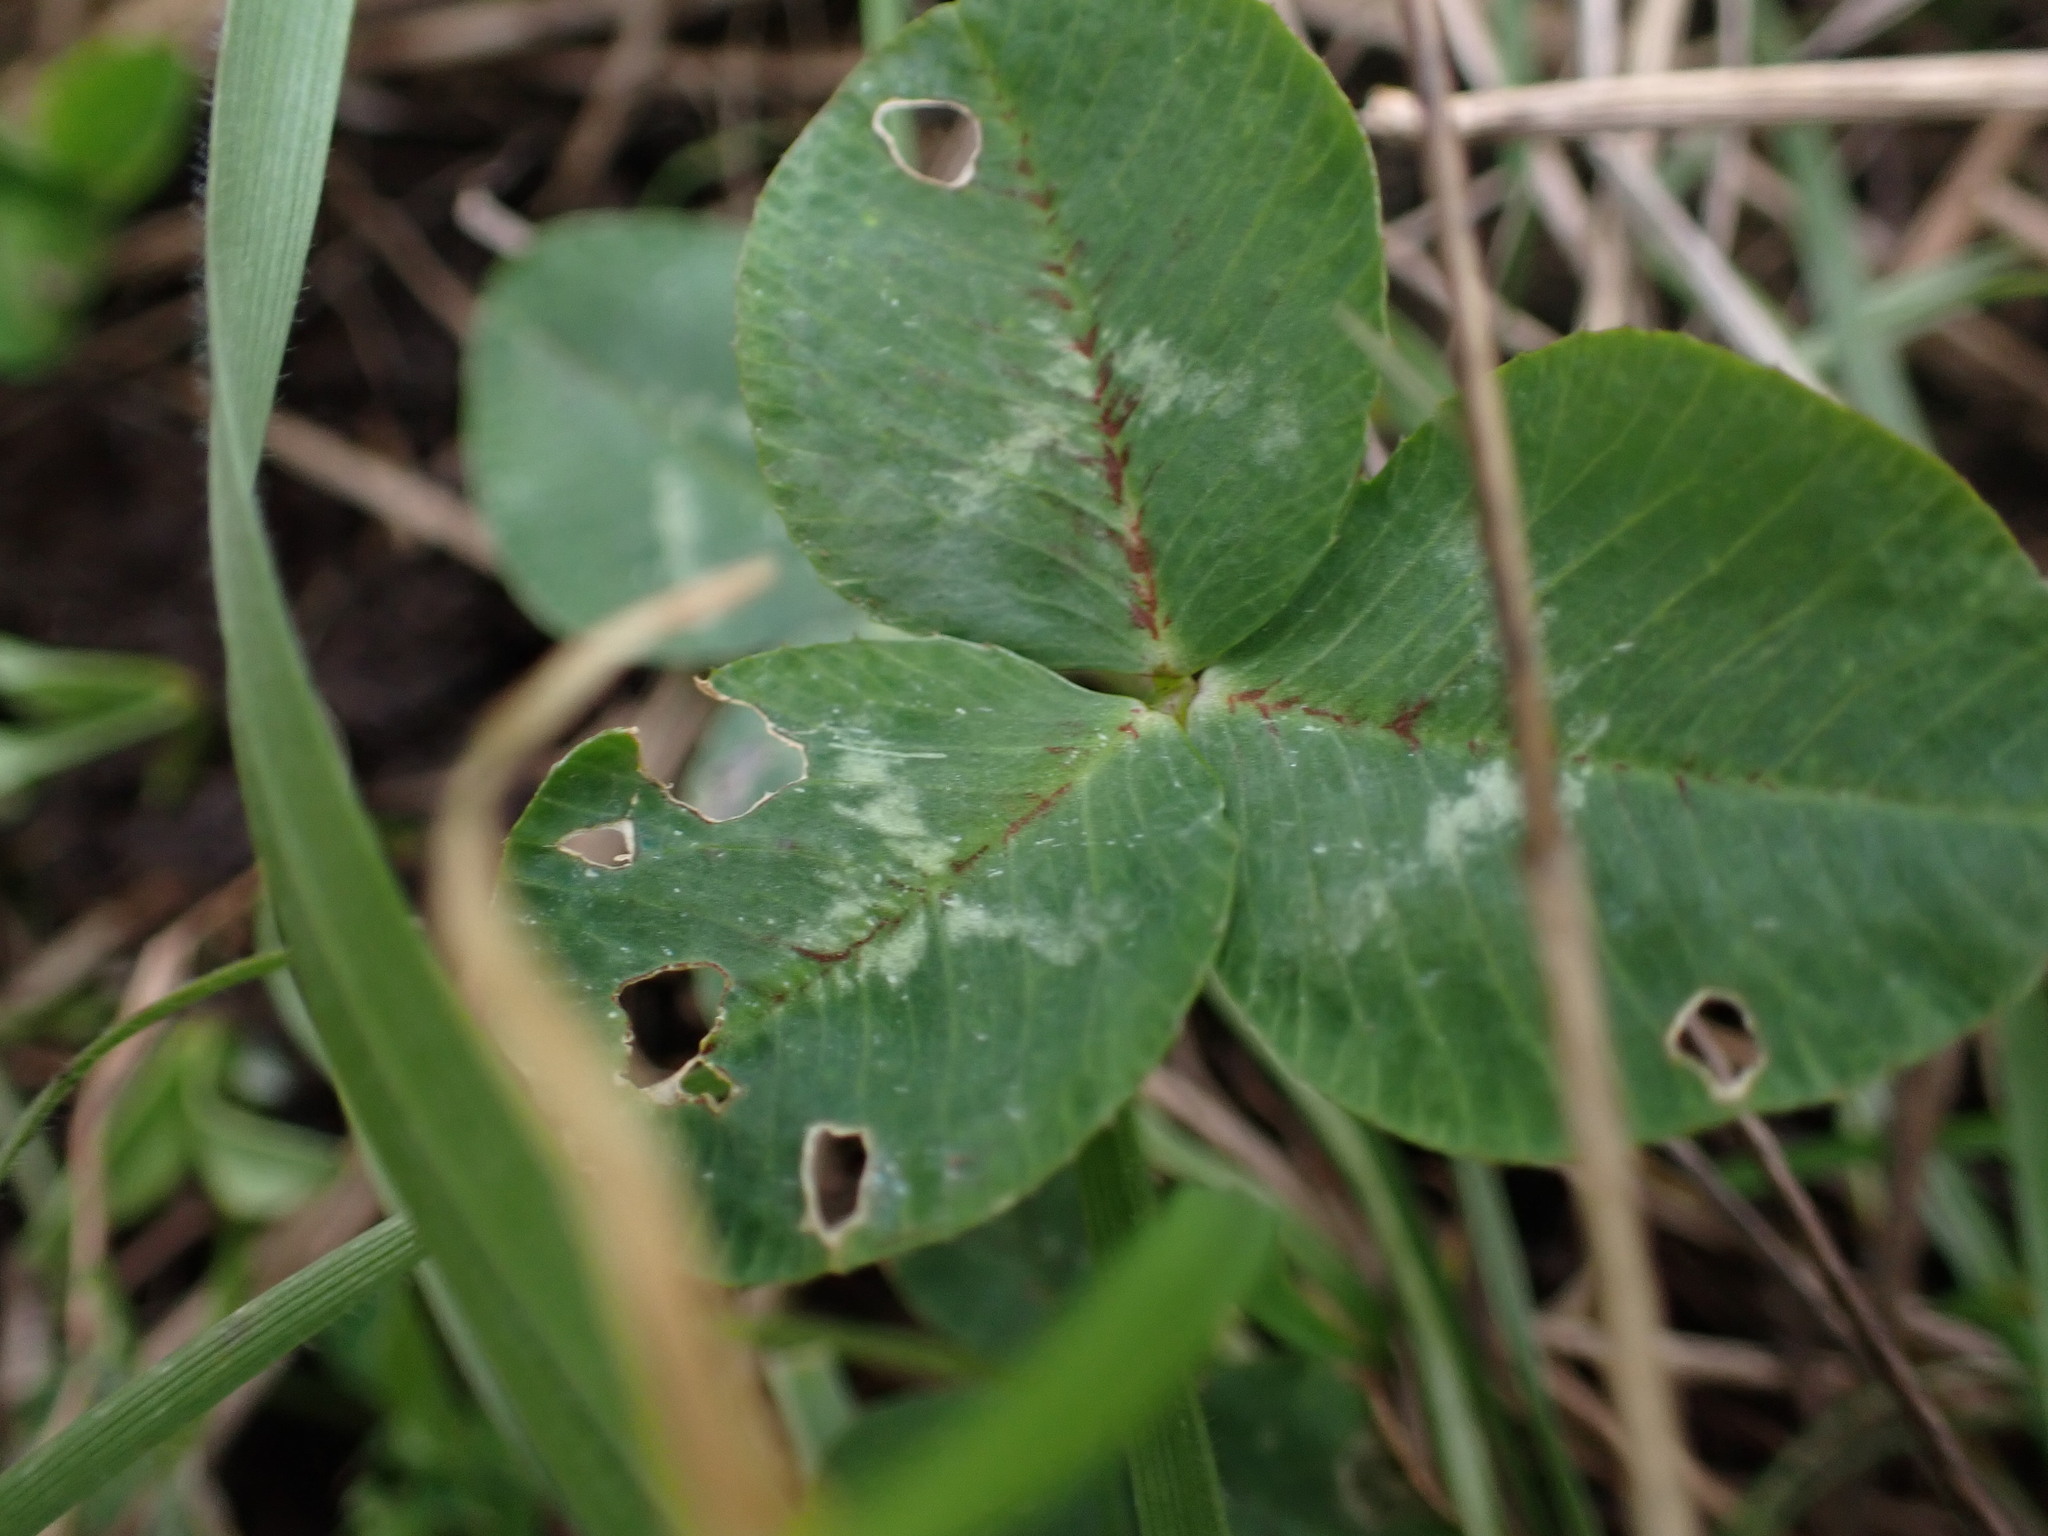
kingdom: Plantae
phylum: Tracheophyta
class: Magnoliopsida
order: Fabales
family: Fabaceae
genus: Trifolium
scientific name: Trifolium repens
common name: White clover
